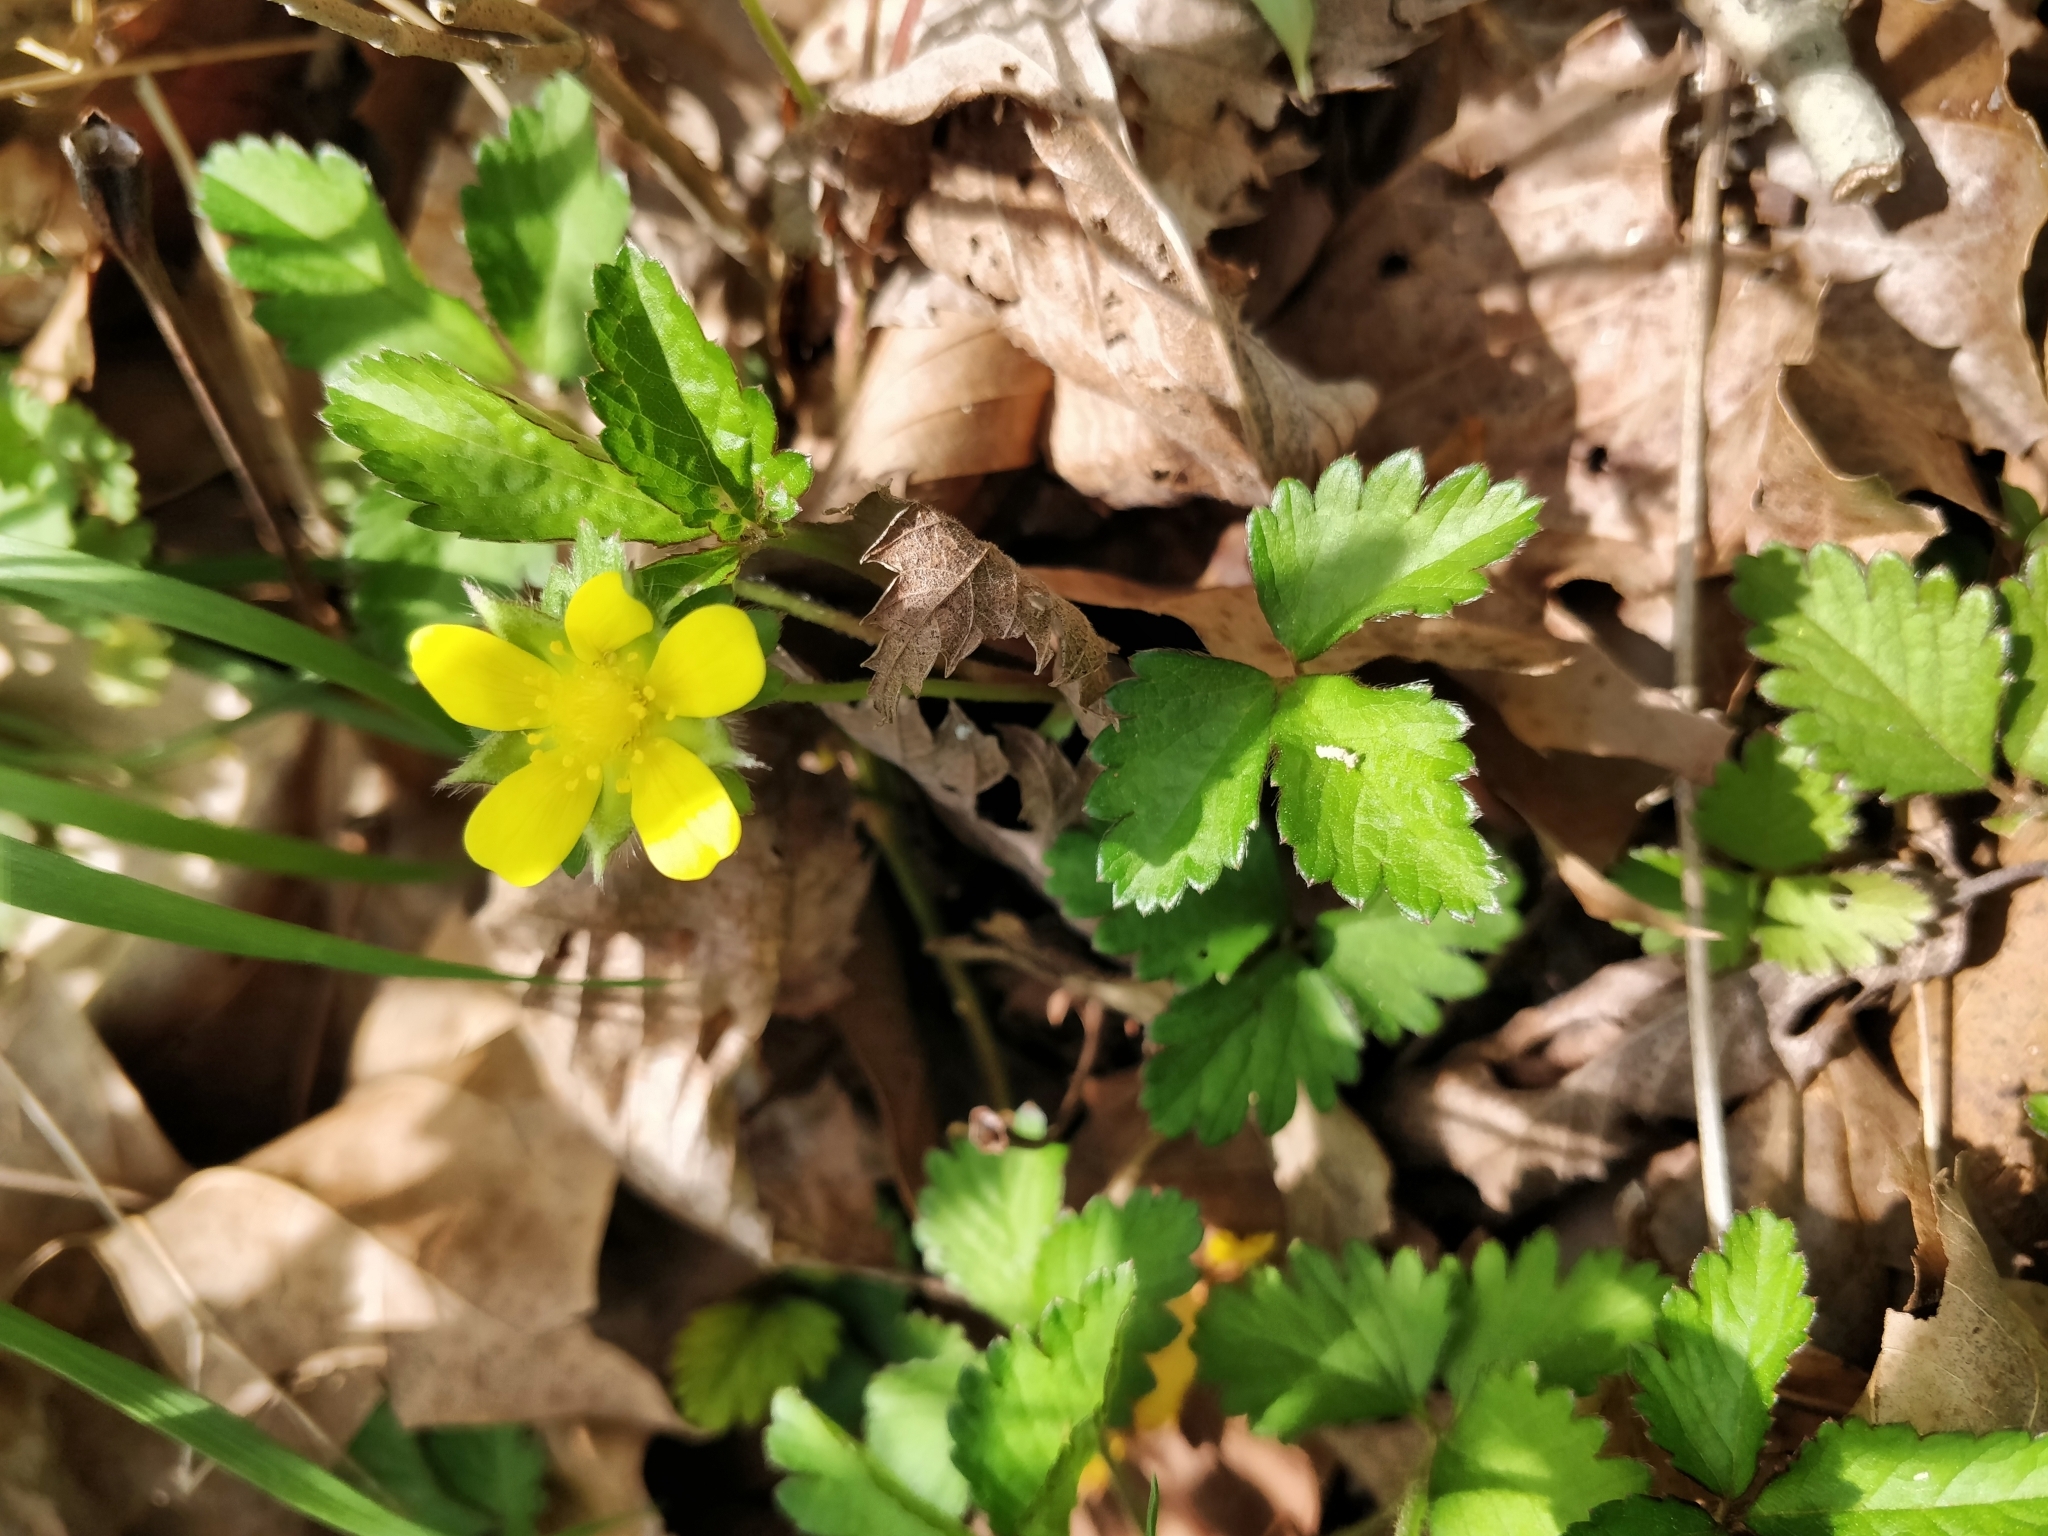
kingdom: Plantae
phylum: Tracheophyta
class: Magnoliopsida
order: Rosales
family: Rosaceae
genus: Potentilla
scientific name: Potentilla indica
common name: Yellow-flowered strawberry
